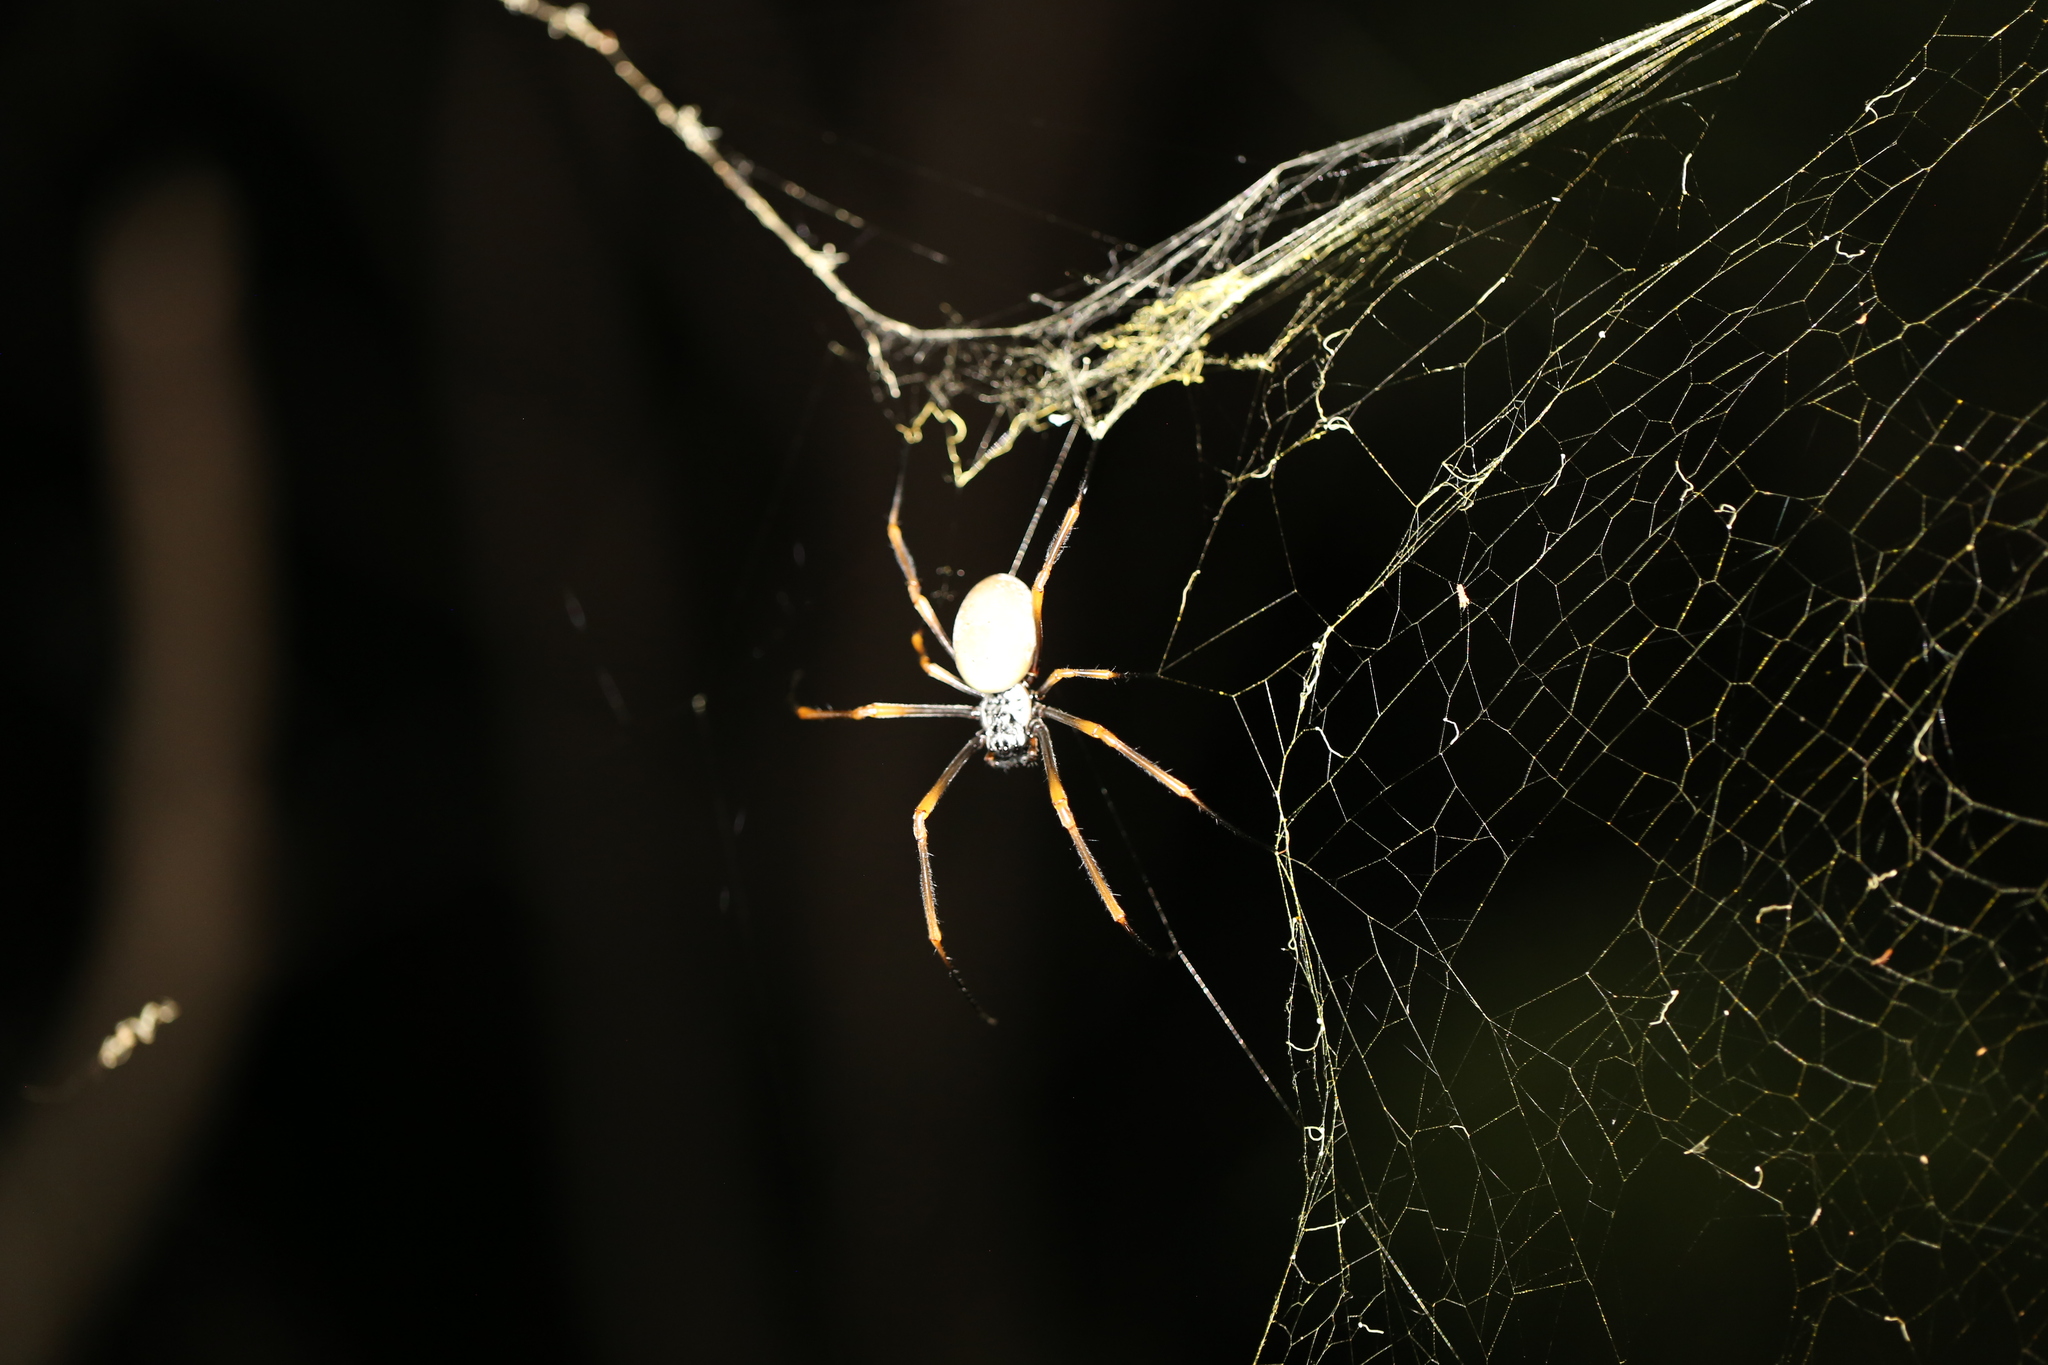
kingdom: Animalia
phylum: Arthropoda
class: Arachnida
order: Araneae
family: Araneidae
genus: Trichonephila
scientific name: Trichonephila plumipes
